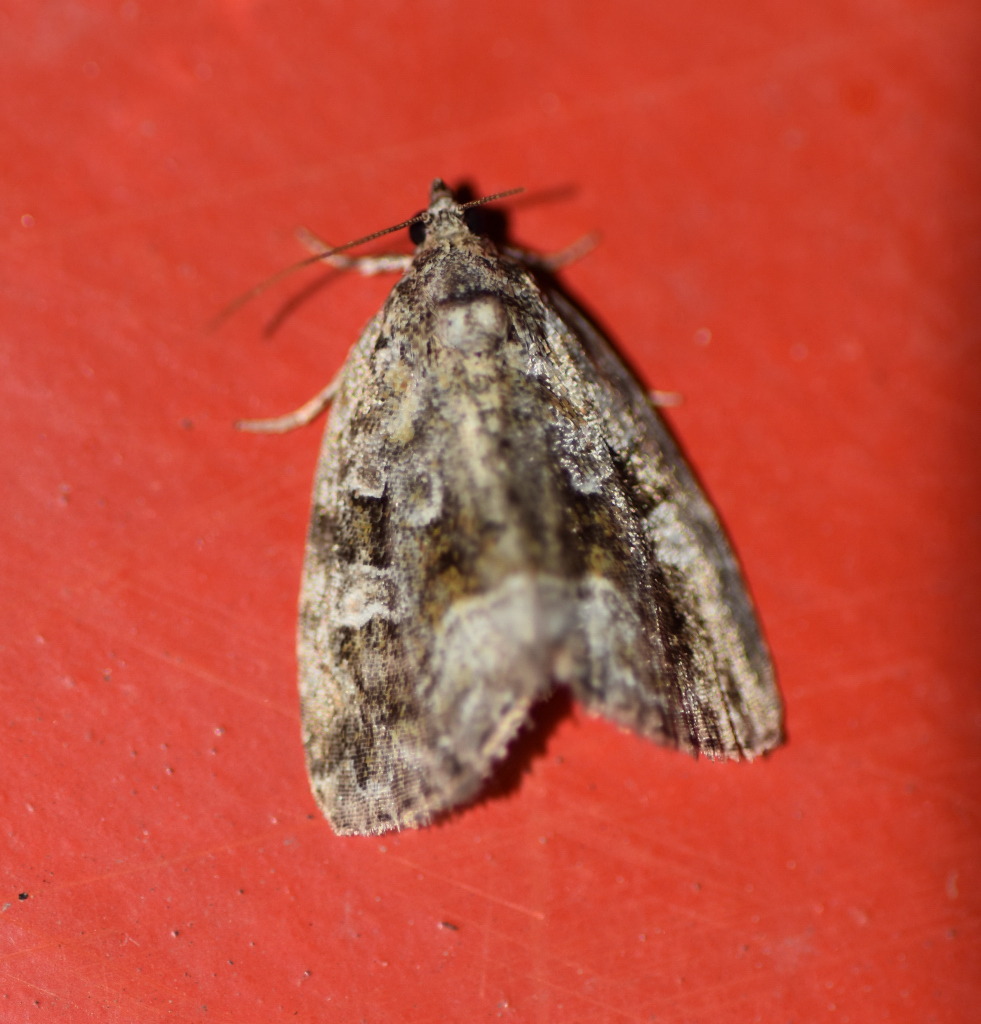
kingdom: Animalia
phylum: Arthropoda
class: Insecta
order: Lepidoptera
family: Noctuidae
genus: Protodeltote
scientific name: Protodeltote muscosula
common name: Large mossy glyph
